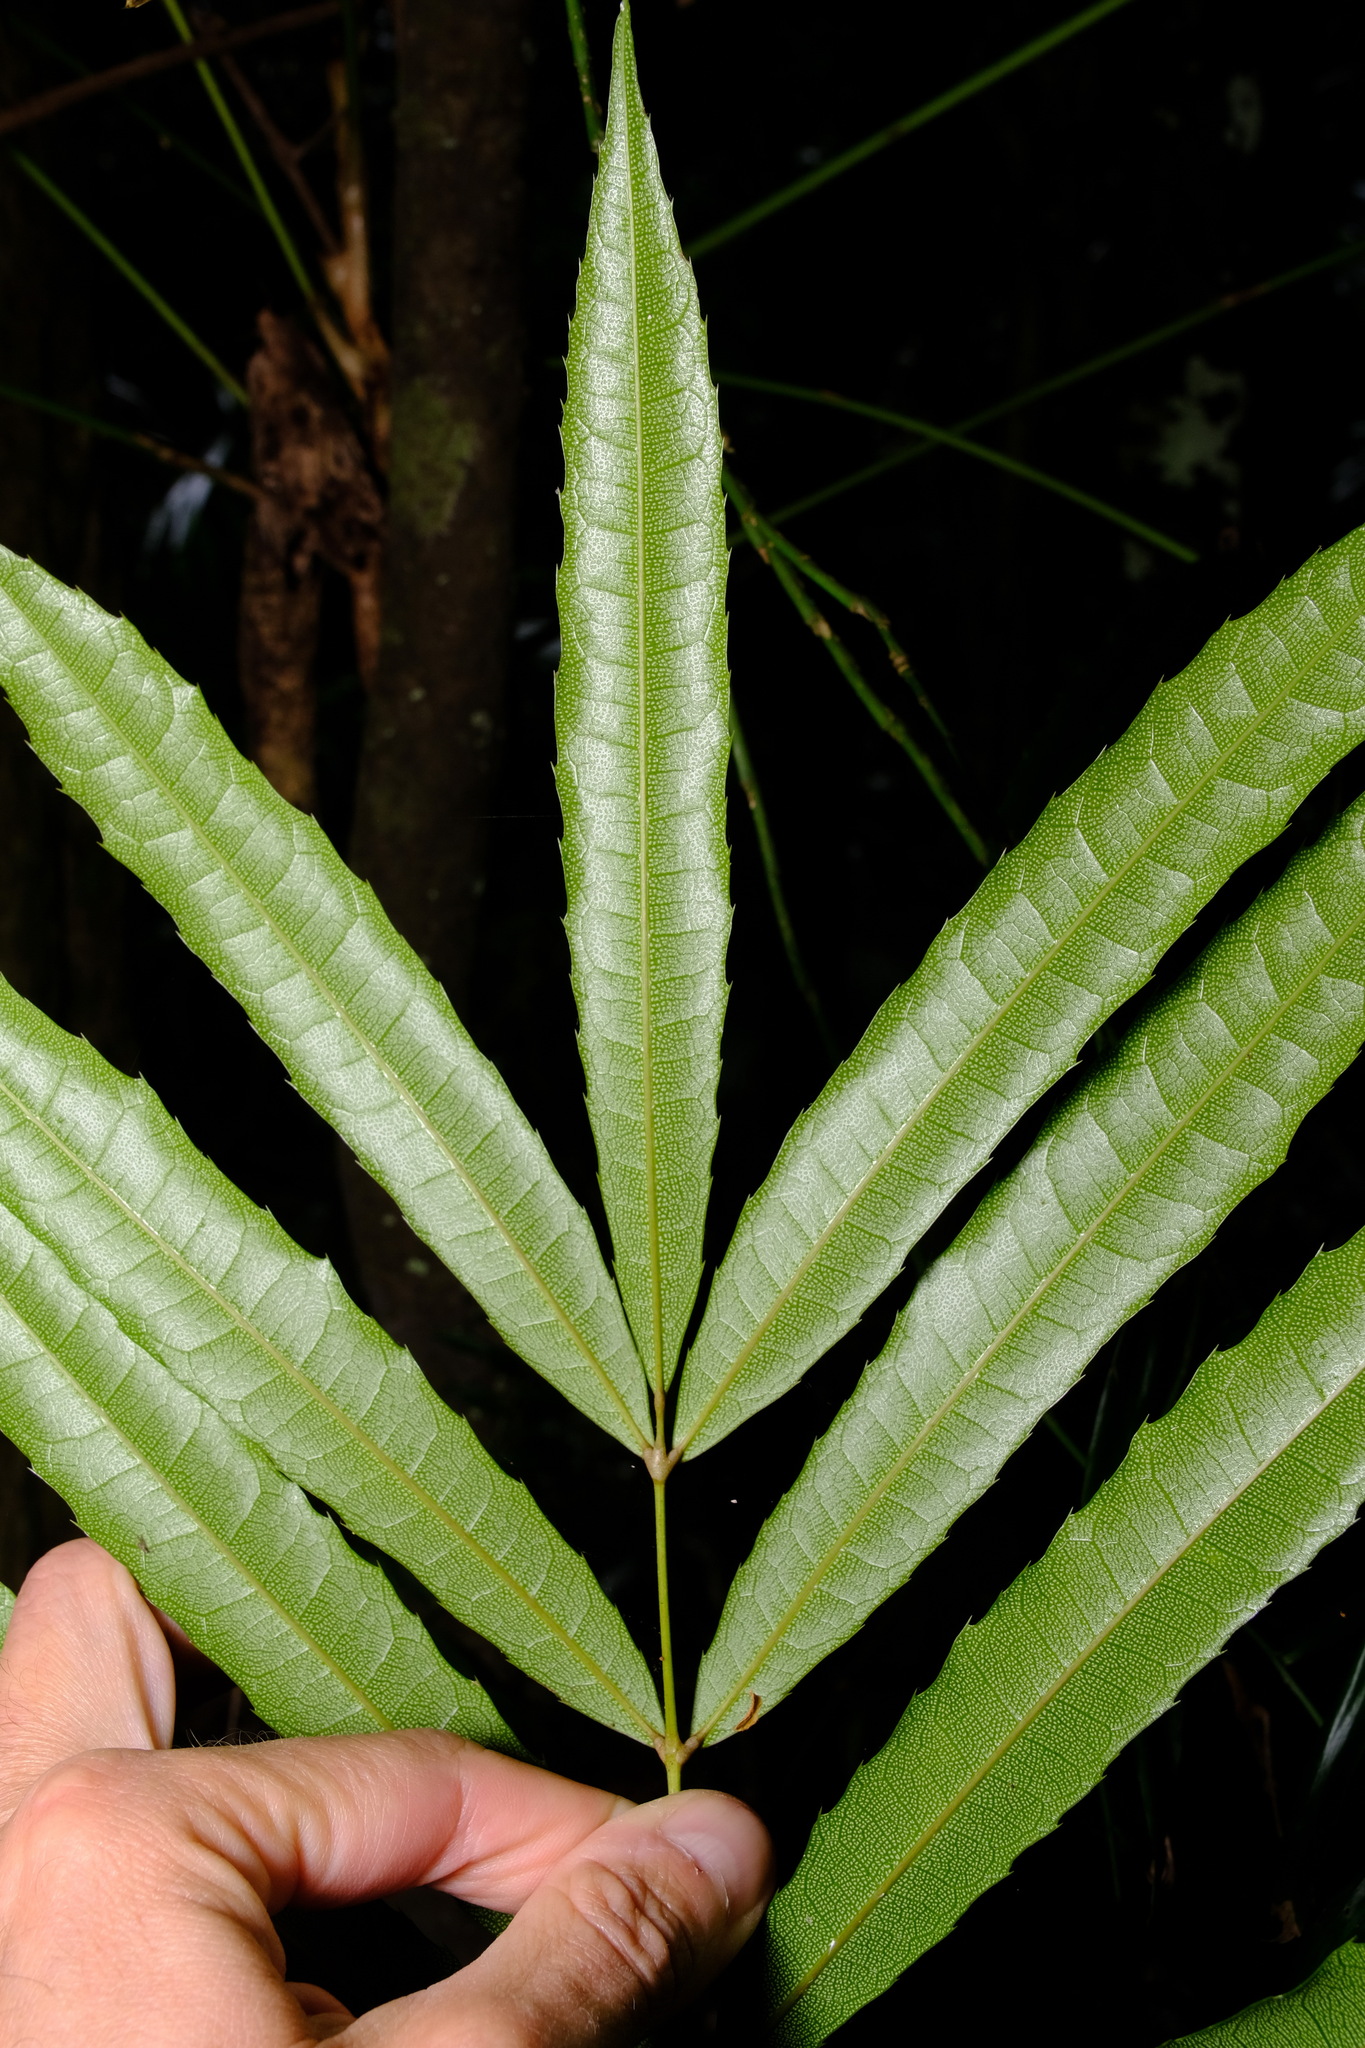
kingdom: Plantae
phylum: Tracheophyta
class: Magnoliopsida
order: Brassicales
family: Akaniaceae
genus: Akania
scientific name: Akania bidwillii
